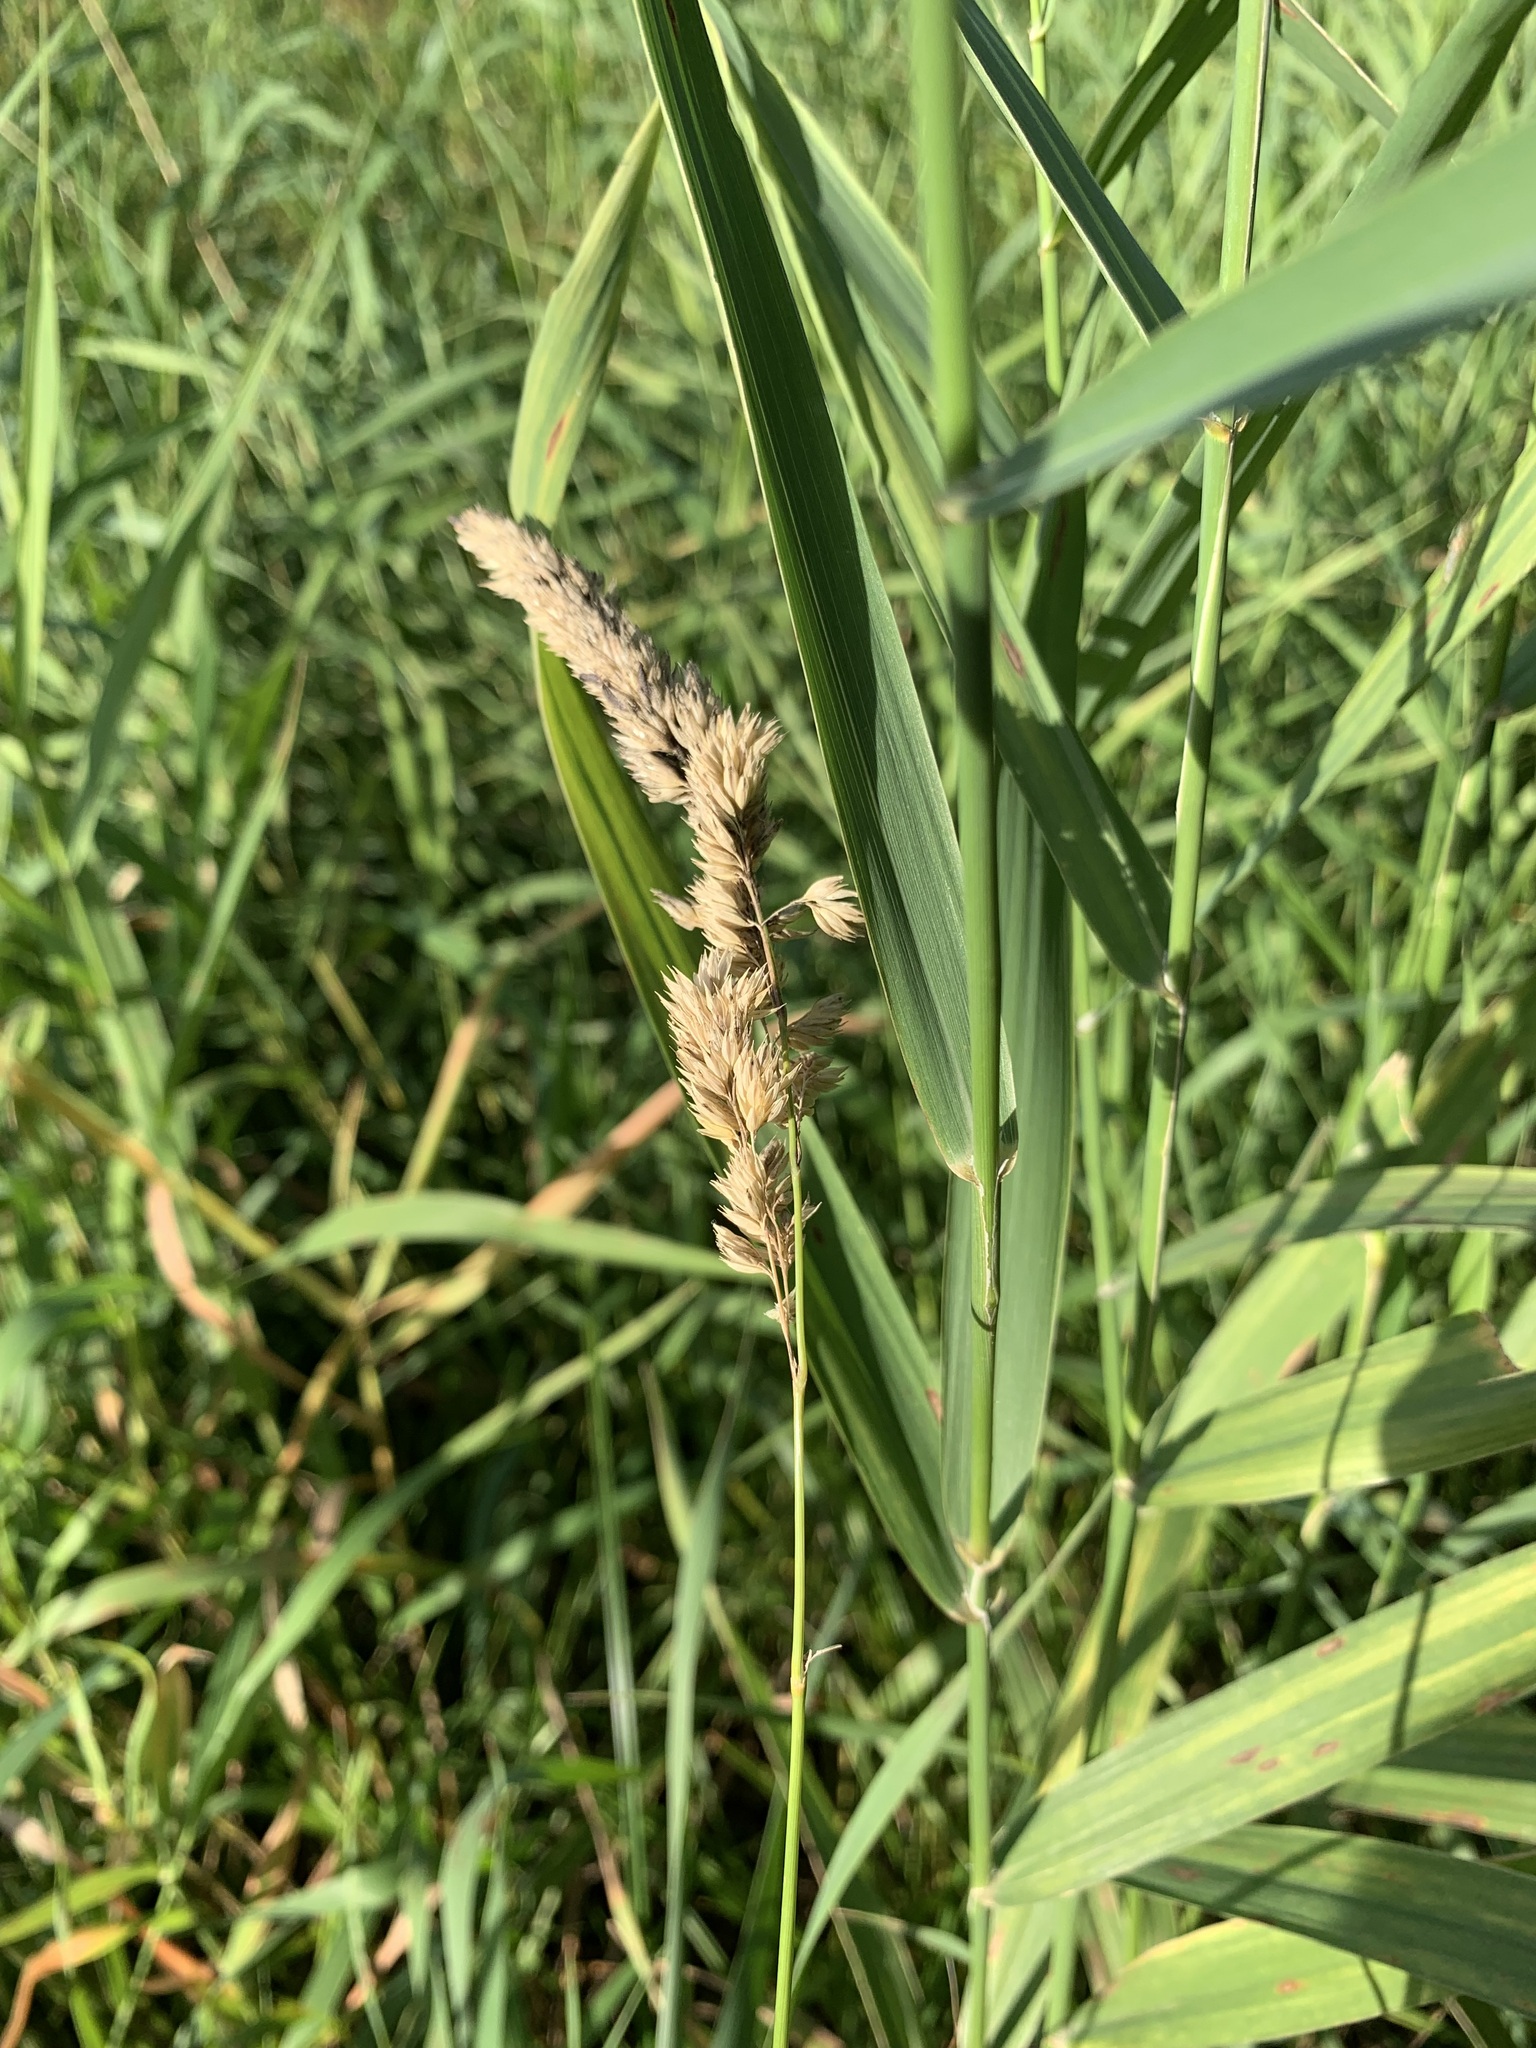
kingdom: Plantae
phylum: Tracheophyta
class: Liliopsida
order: Poales
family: Poaceae
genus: Phalaris
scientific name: Phalaris arundinacea
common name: Reed canary-grass
